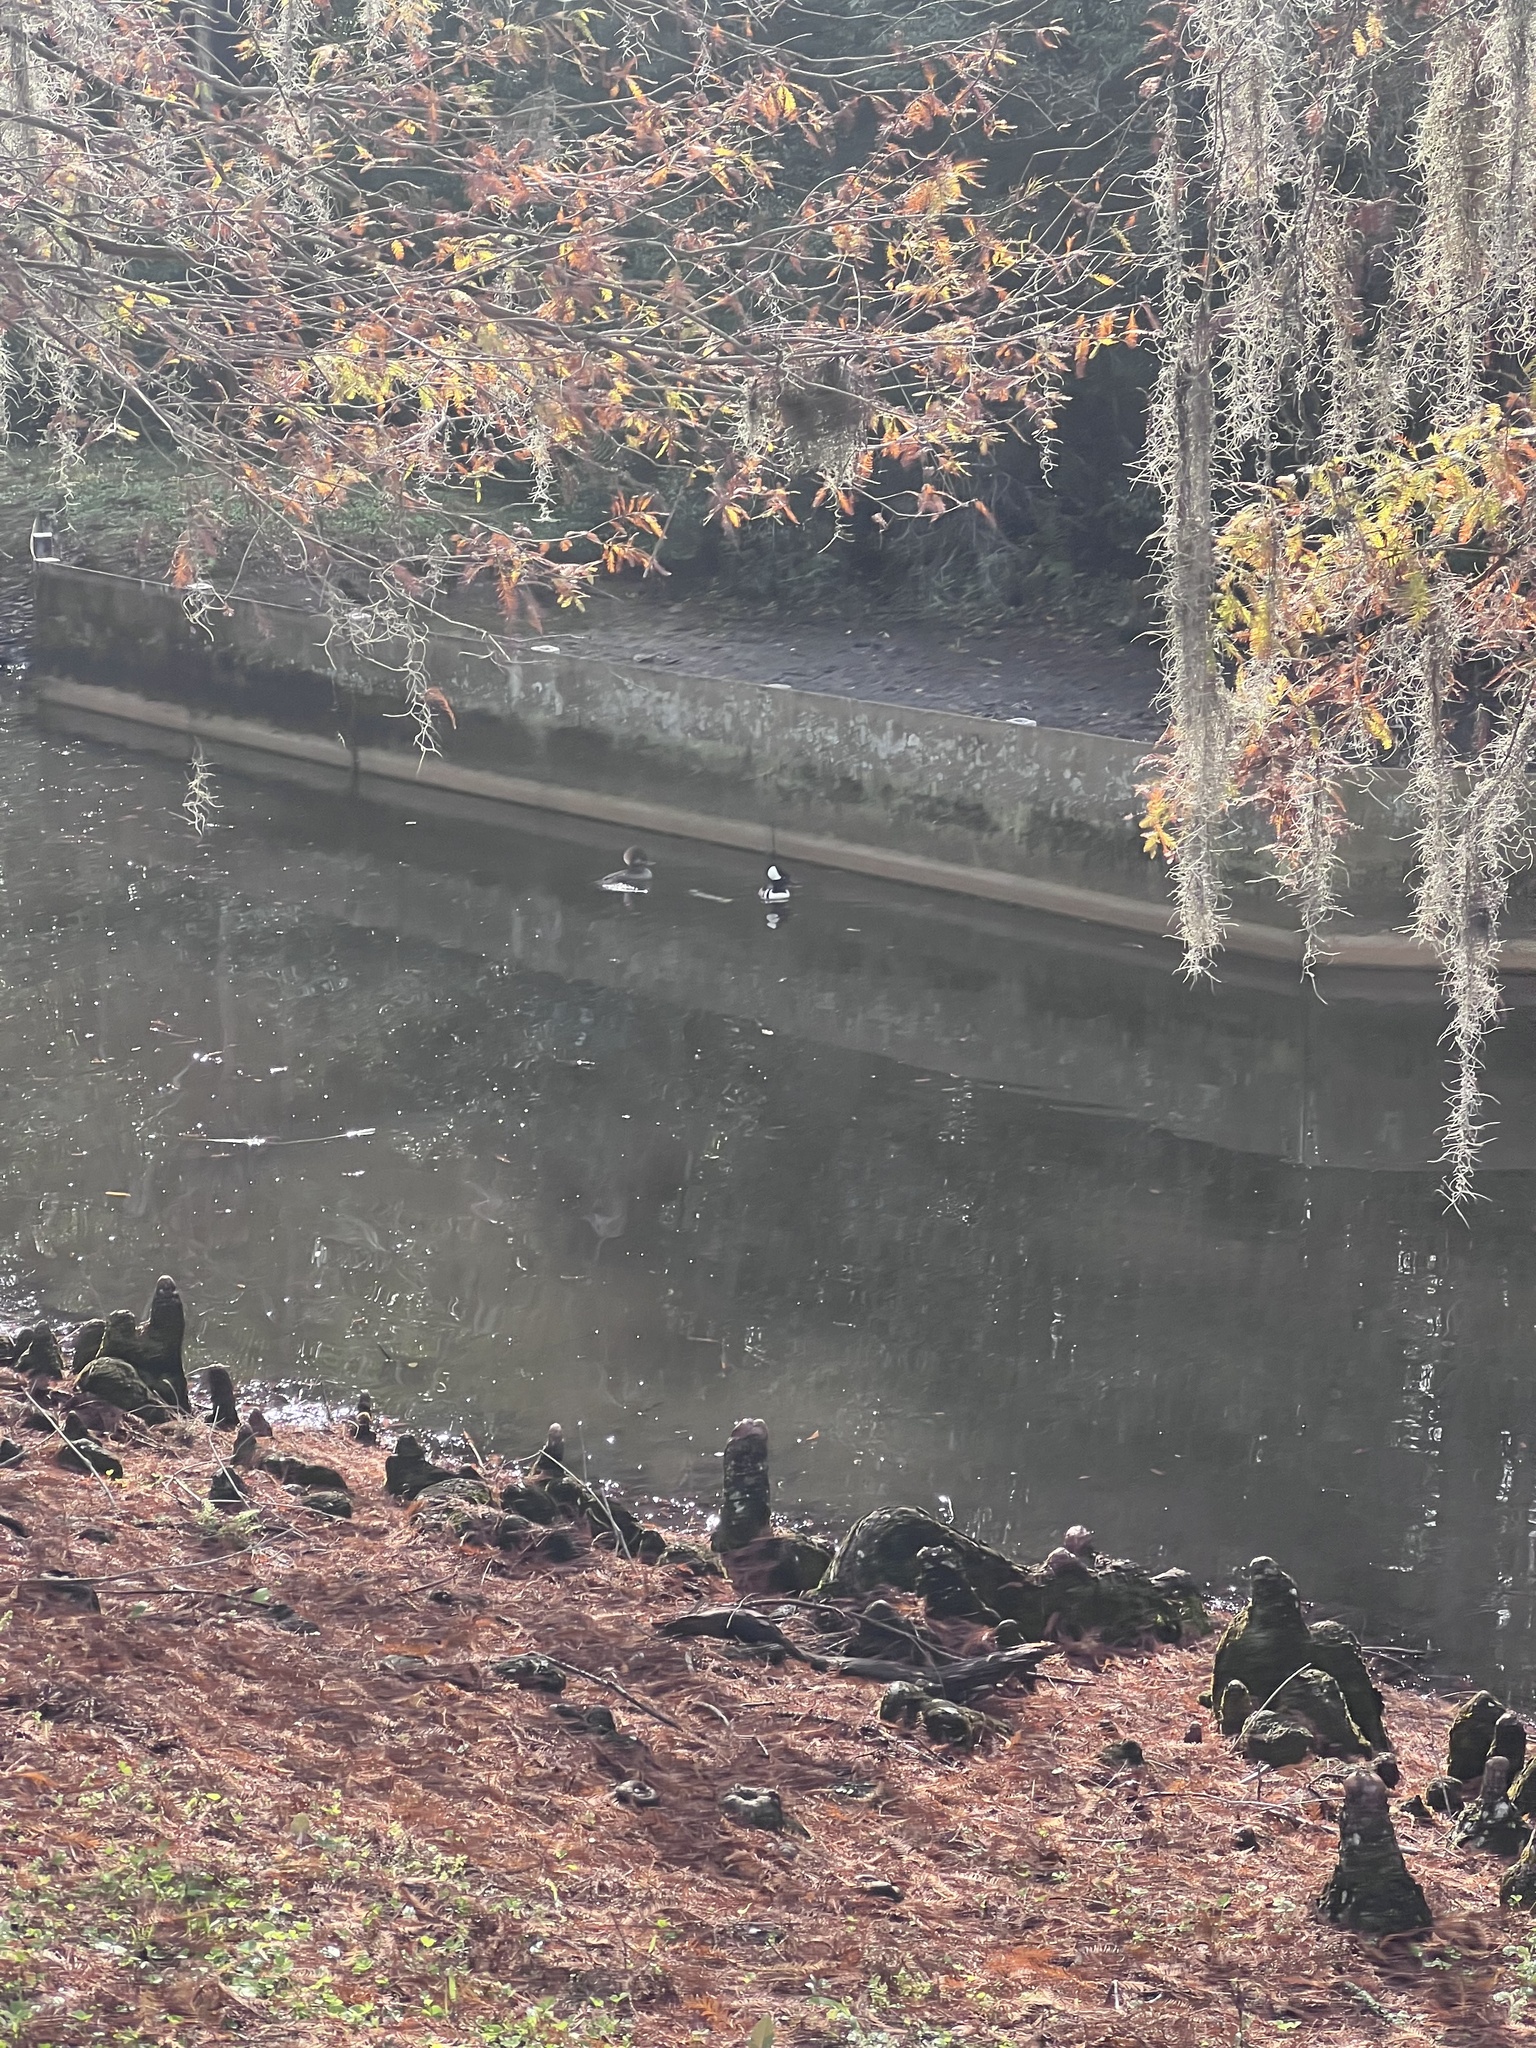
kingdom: Animalia
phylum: Chordata
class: Aves
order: Anseriformes
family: Anatidae
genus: Lophodytes
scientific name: Lophodytes cucullatus
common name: Hooded merganser
